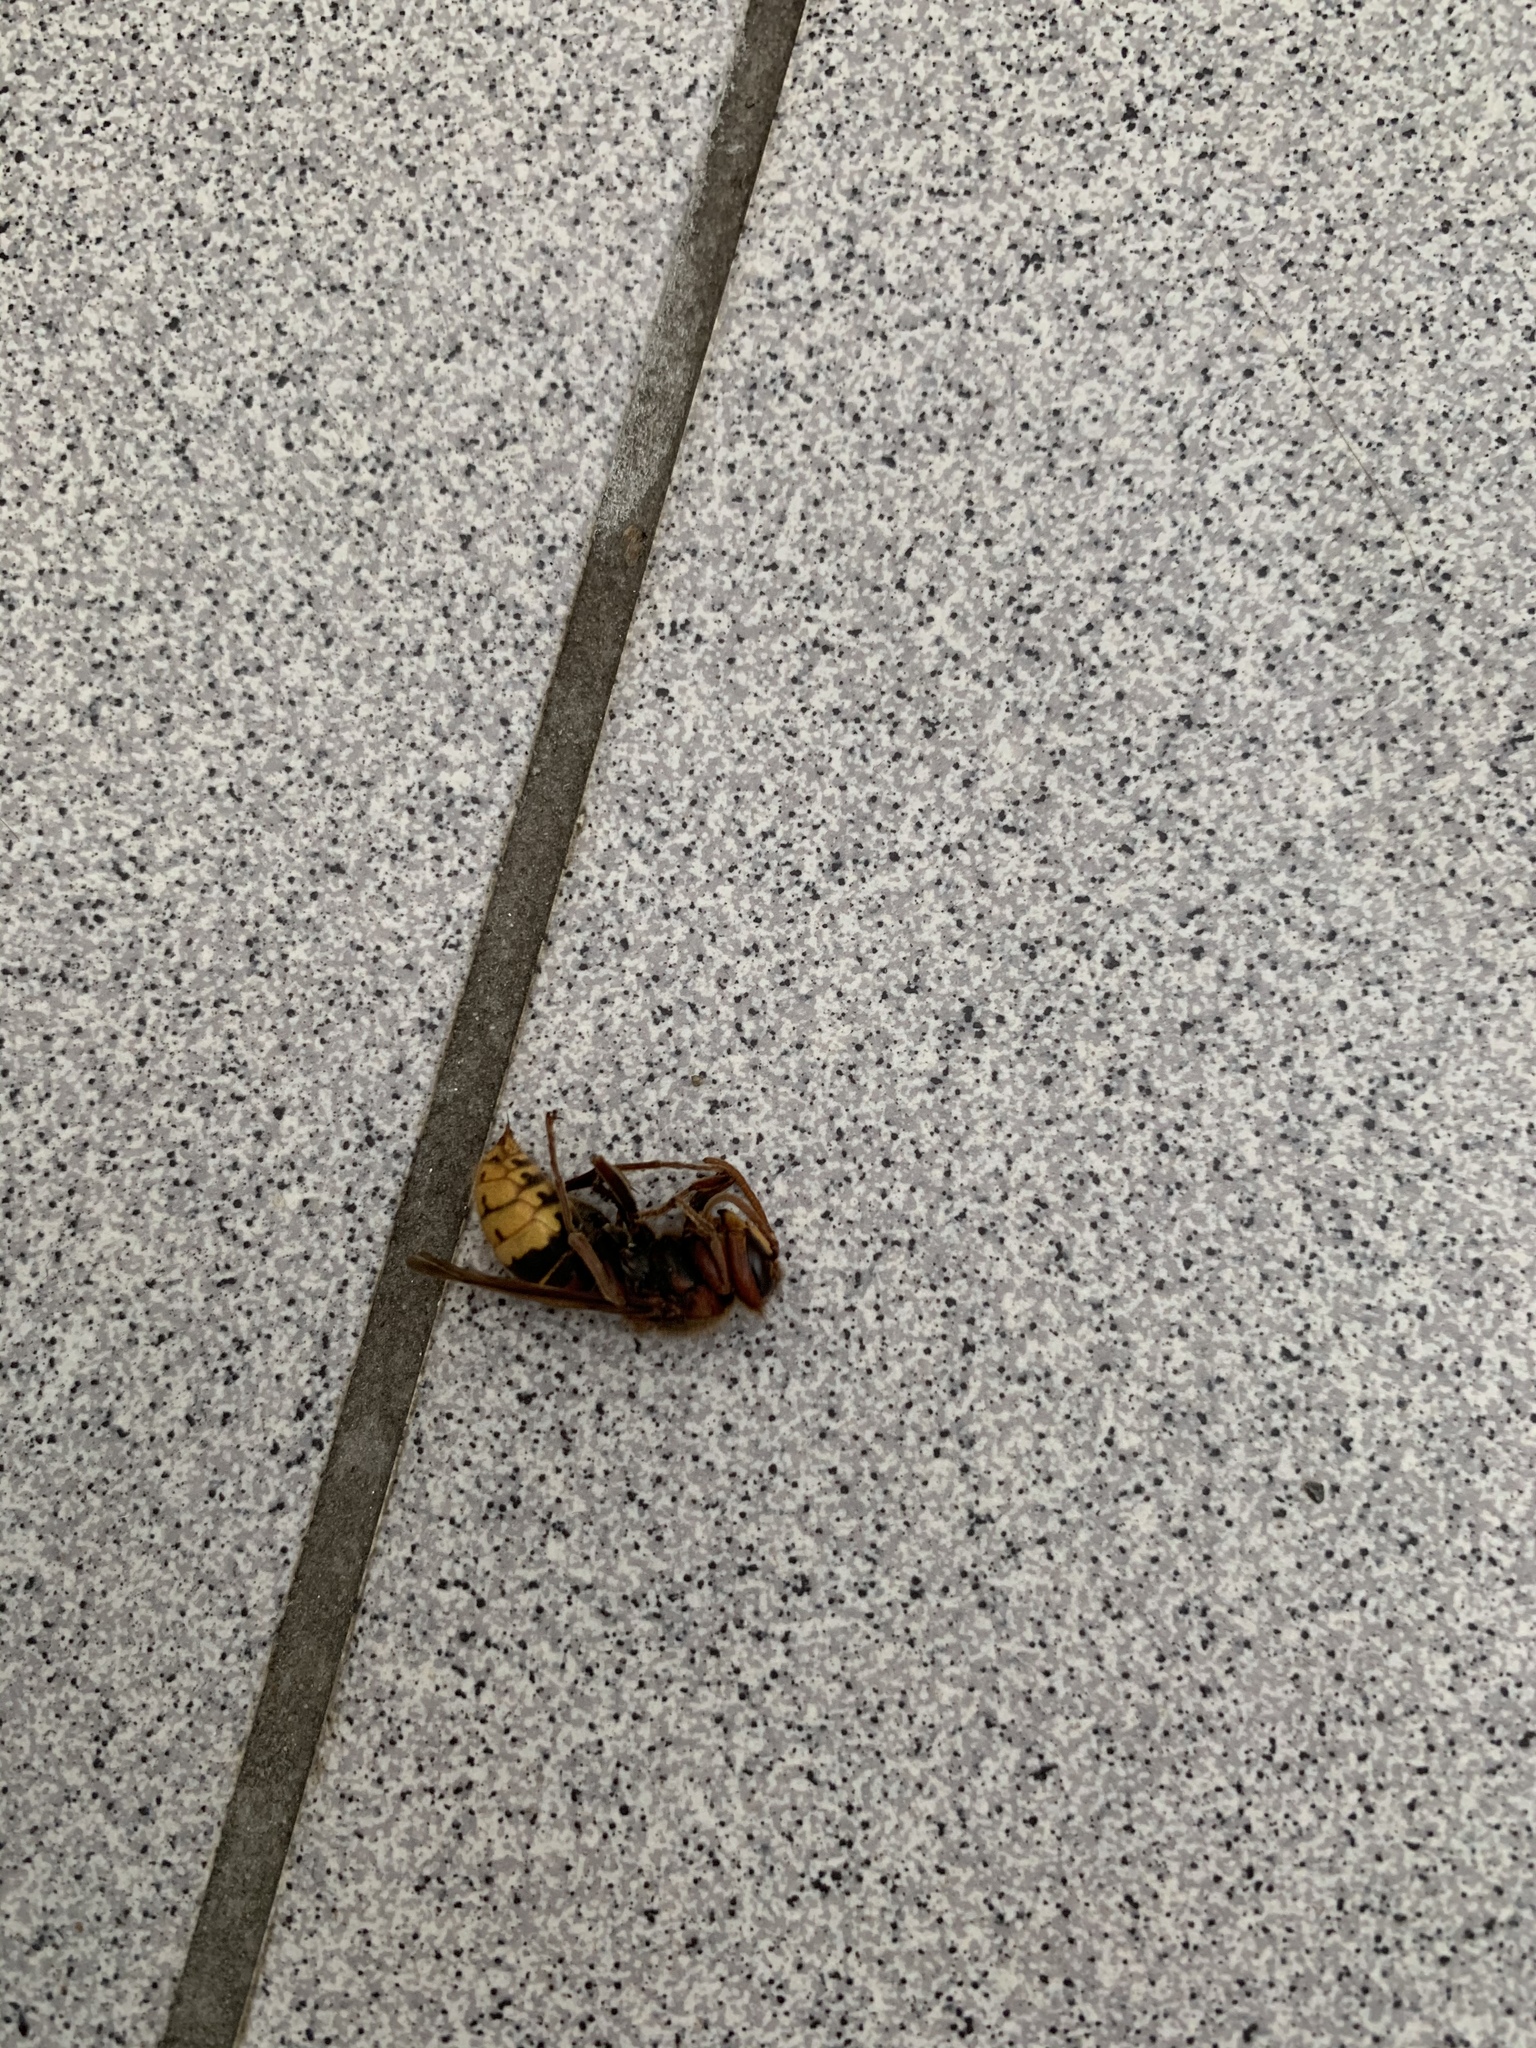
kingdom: Animalia
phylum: Arthropoda
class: Insecta
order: Hymenoptera
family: Vespidae
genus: Vespa
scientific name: Vespa crabro
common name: Hornet
